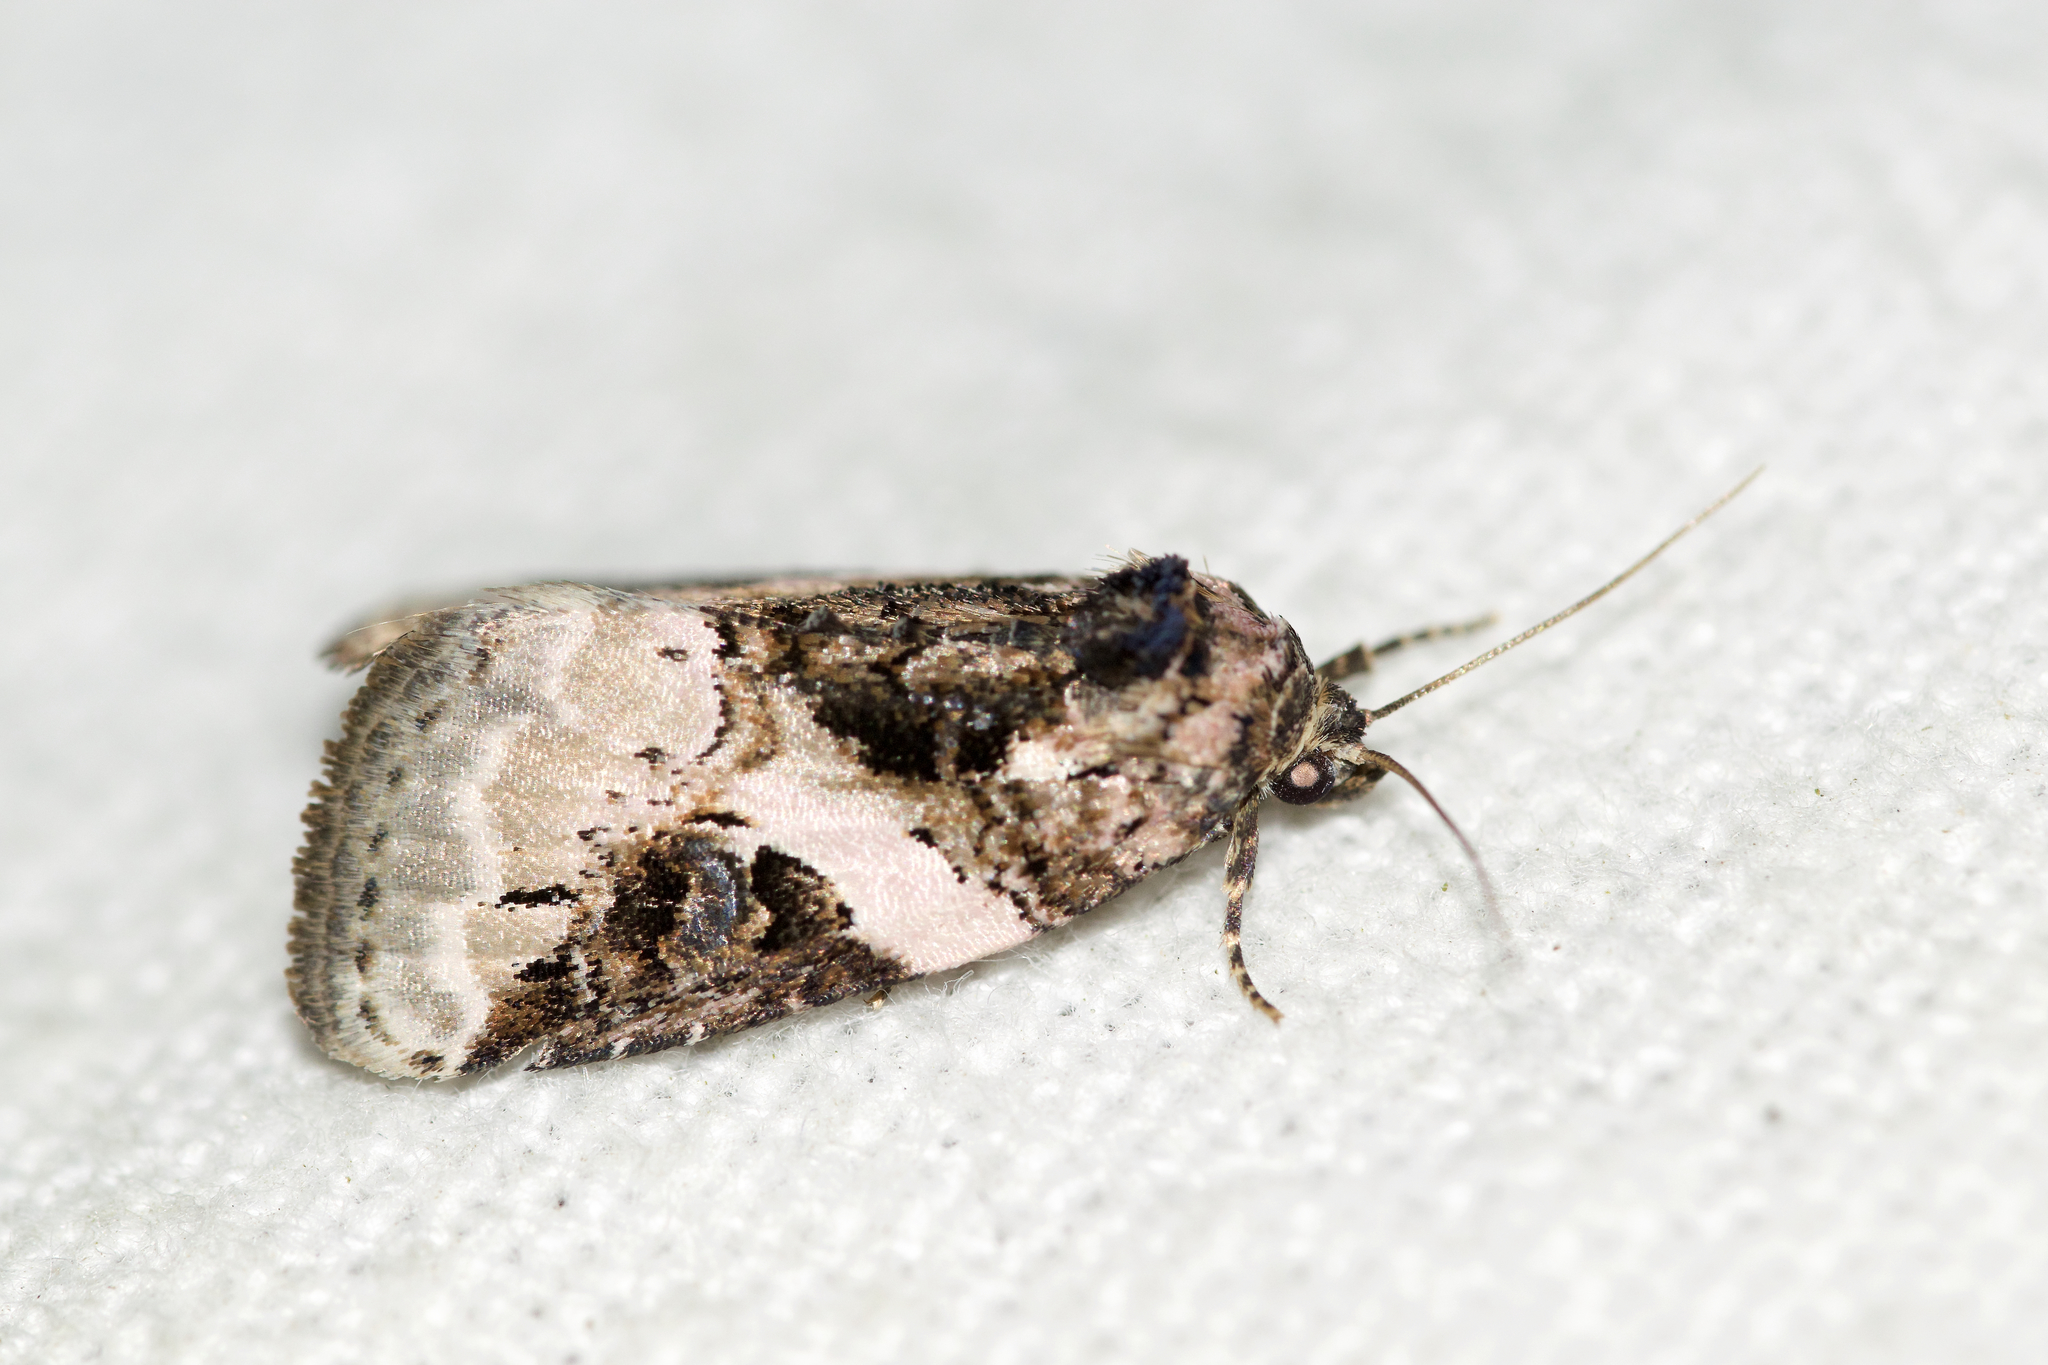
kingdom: Animalia
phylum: Arthropoda
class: Insecta
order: Lepidoptera
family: Noctuidae
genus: Pseudeustrotia
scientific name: Pseudeustrotia carneola
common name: Pink-barred lithacodia moth
